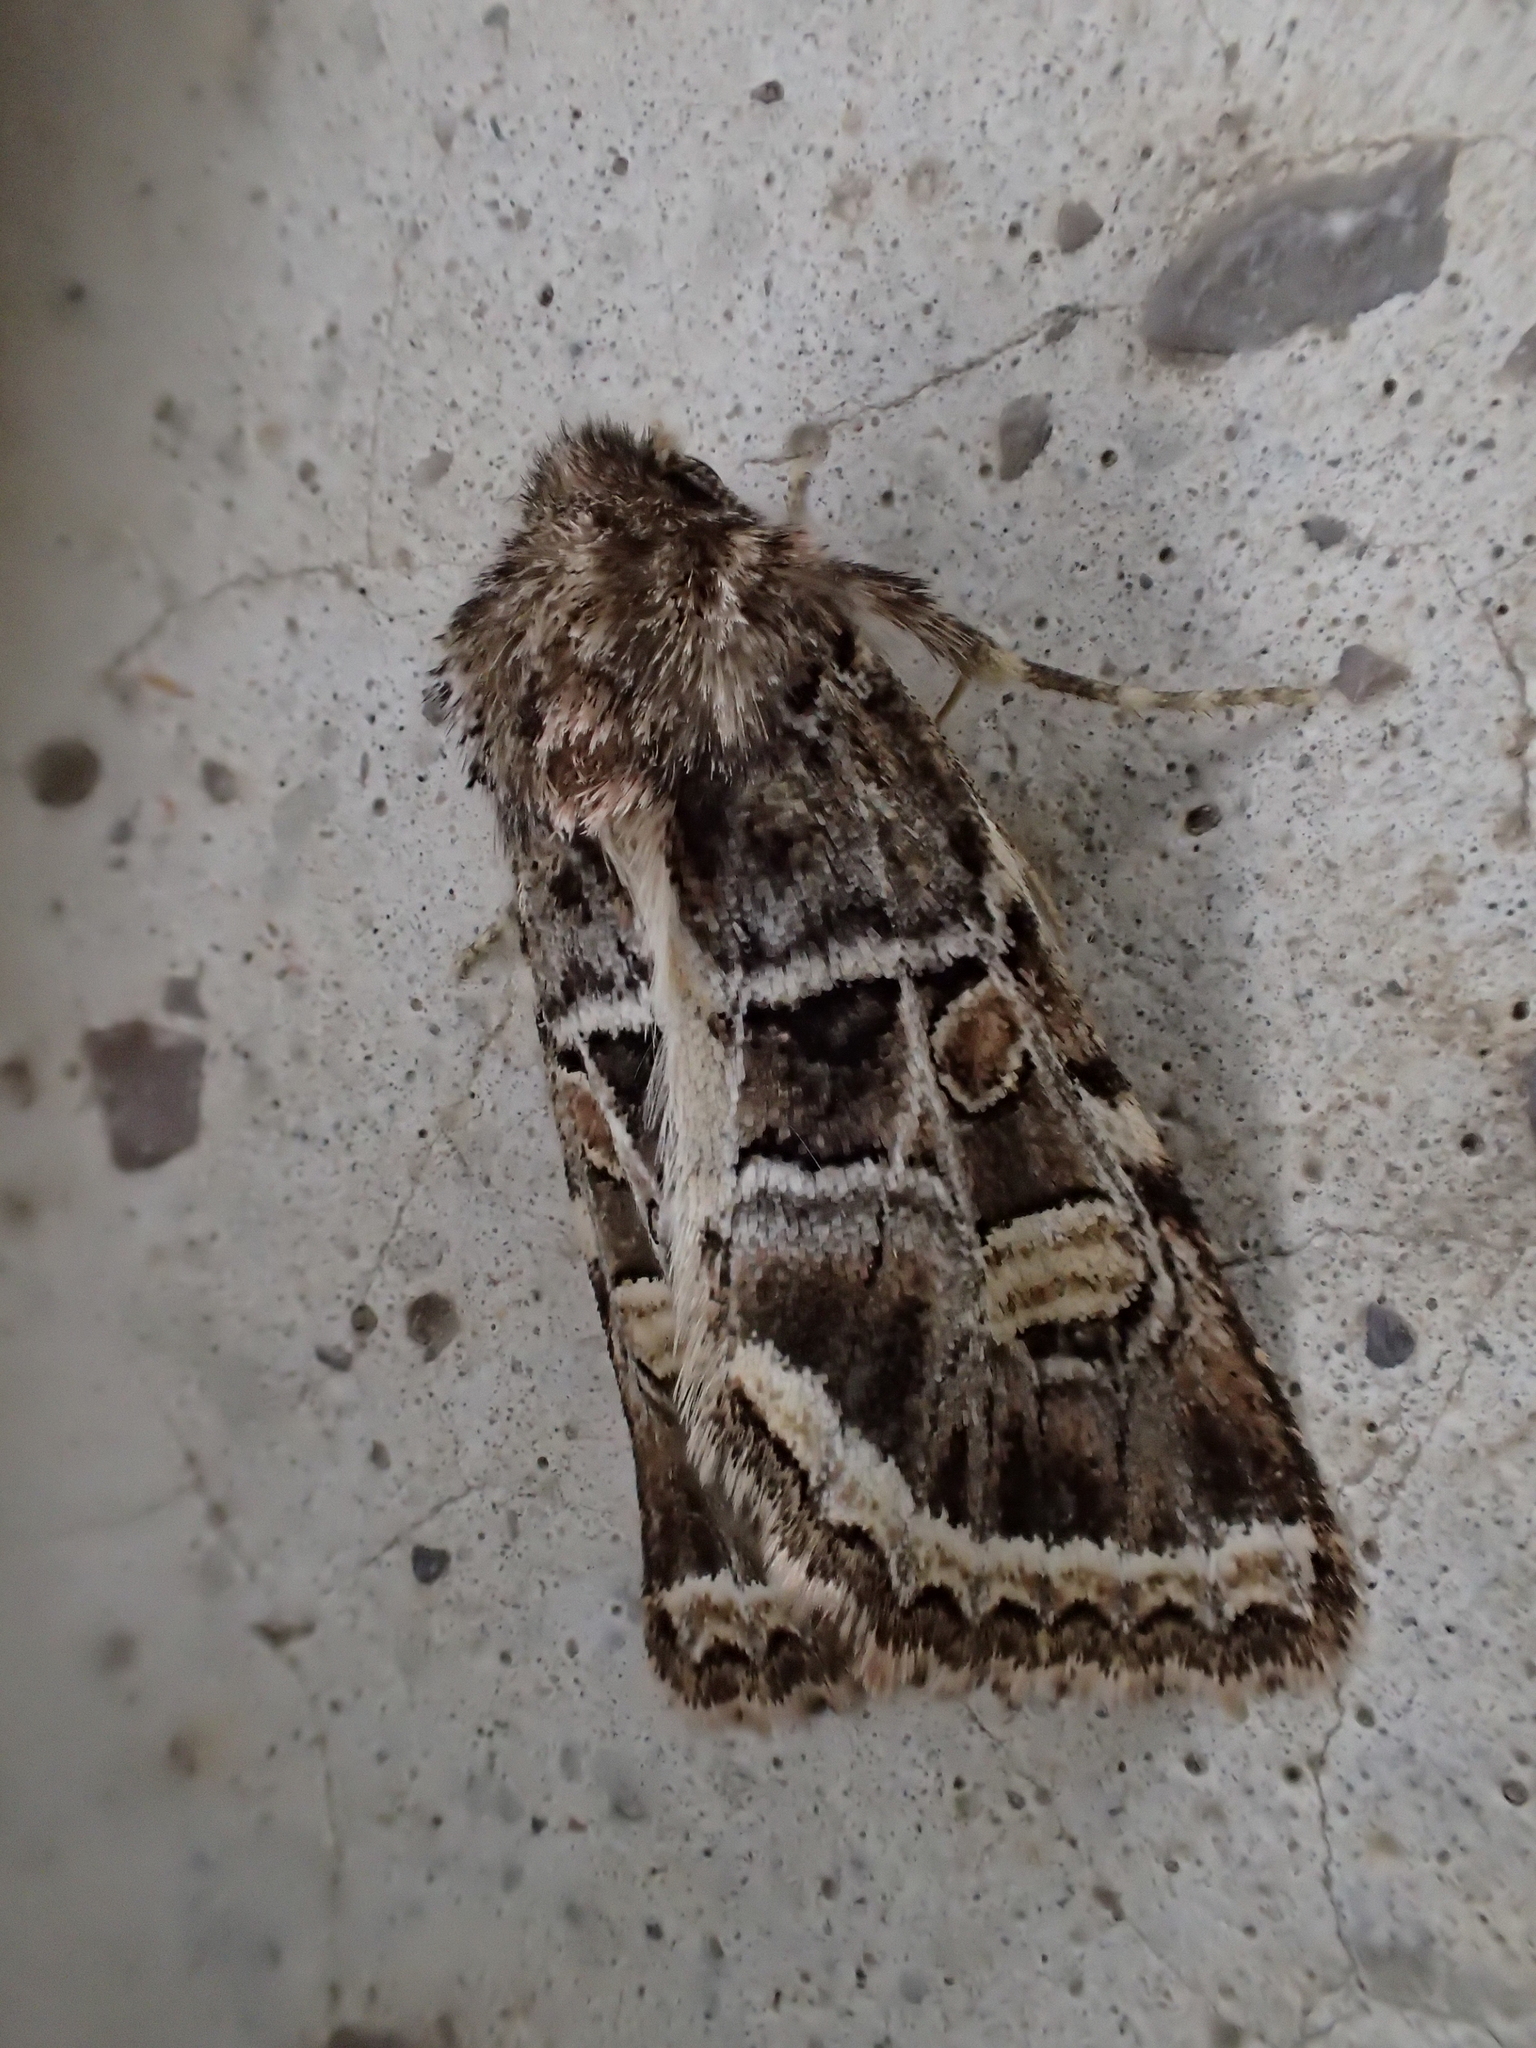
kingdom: Animalia
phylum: Arthropoda
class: Insecta
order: Lepidoptera
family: Noctuidae
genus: Leucochlaena
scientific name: Leucochlaena oditis
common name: Beautiful gothic
